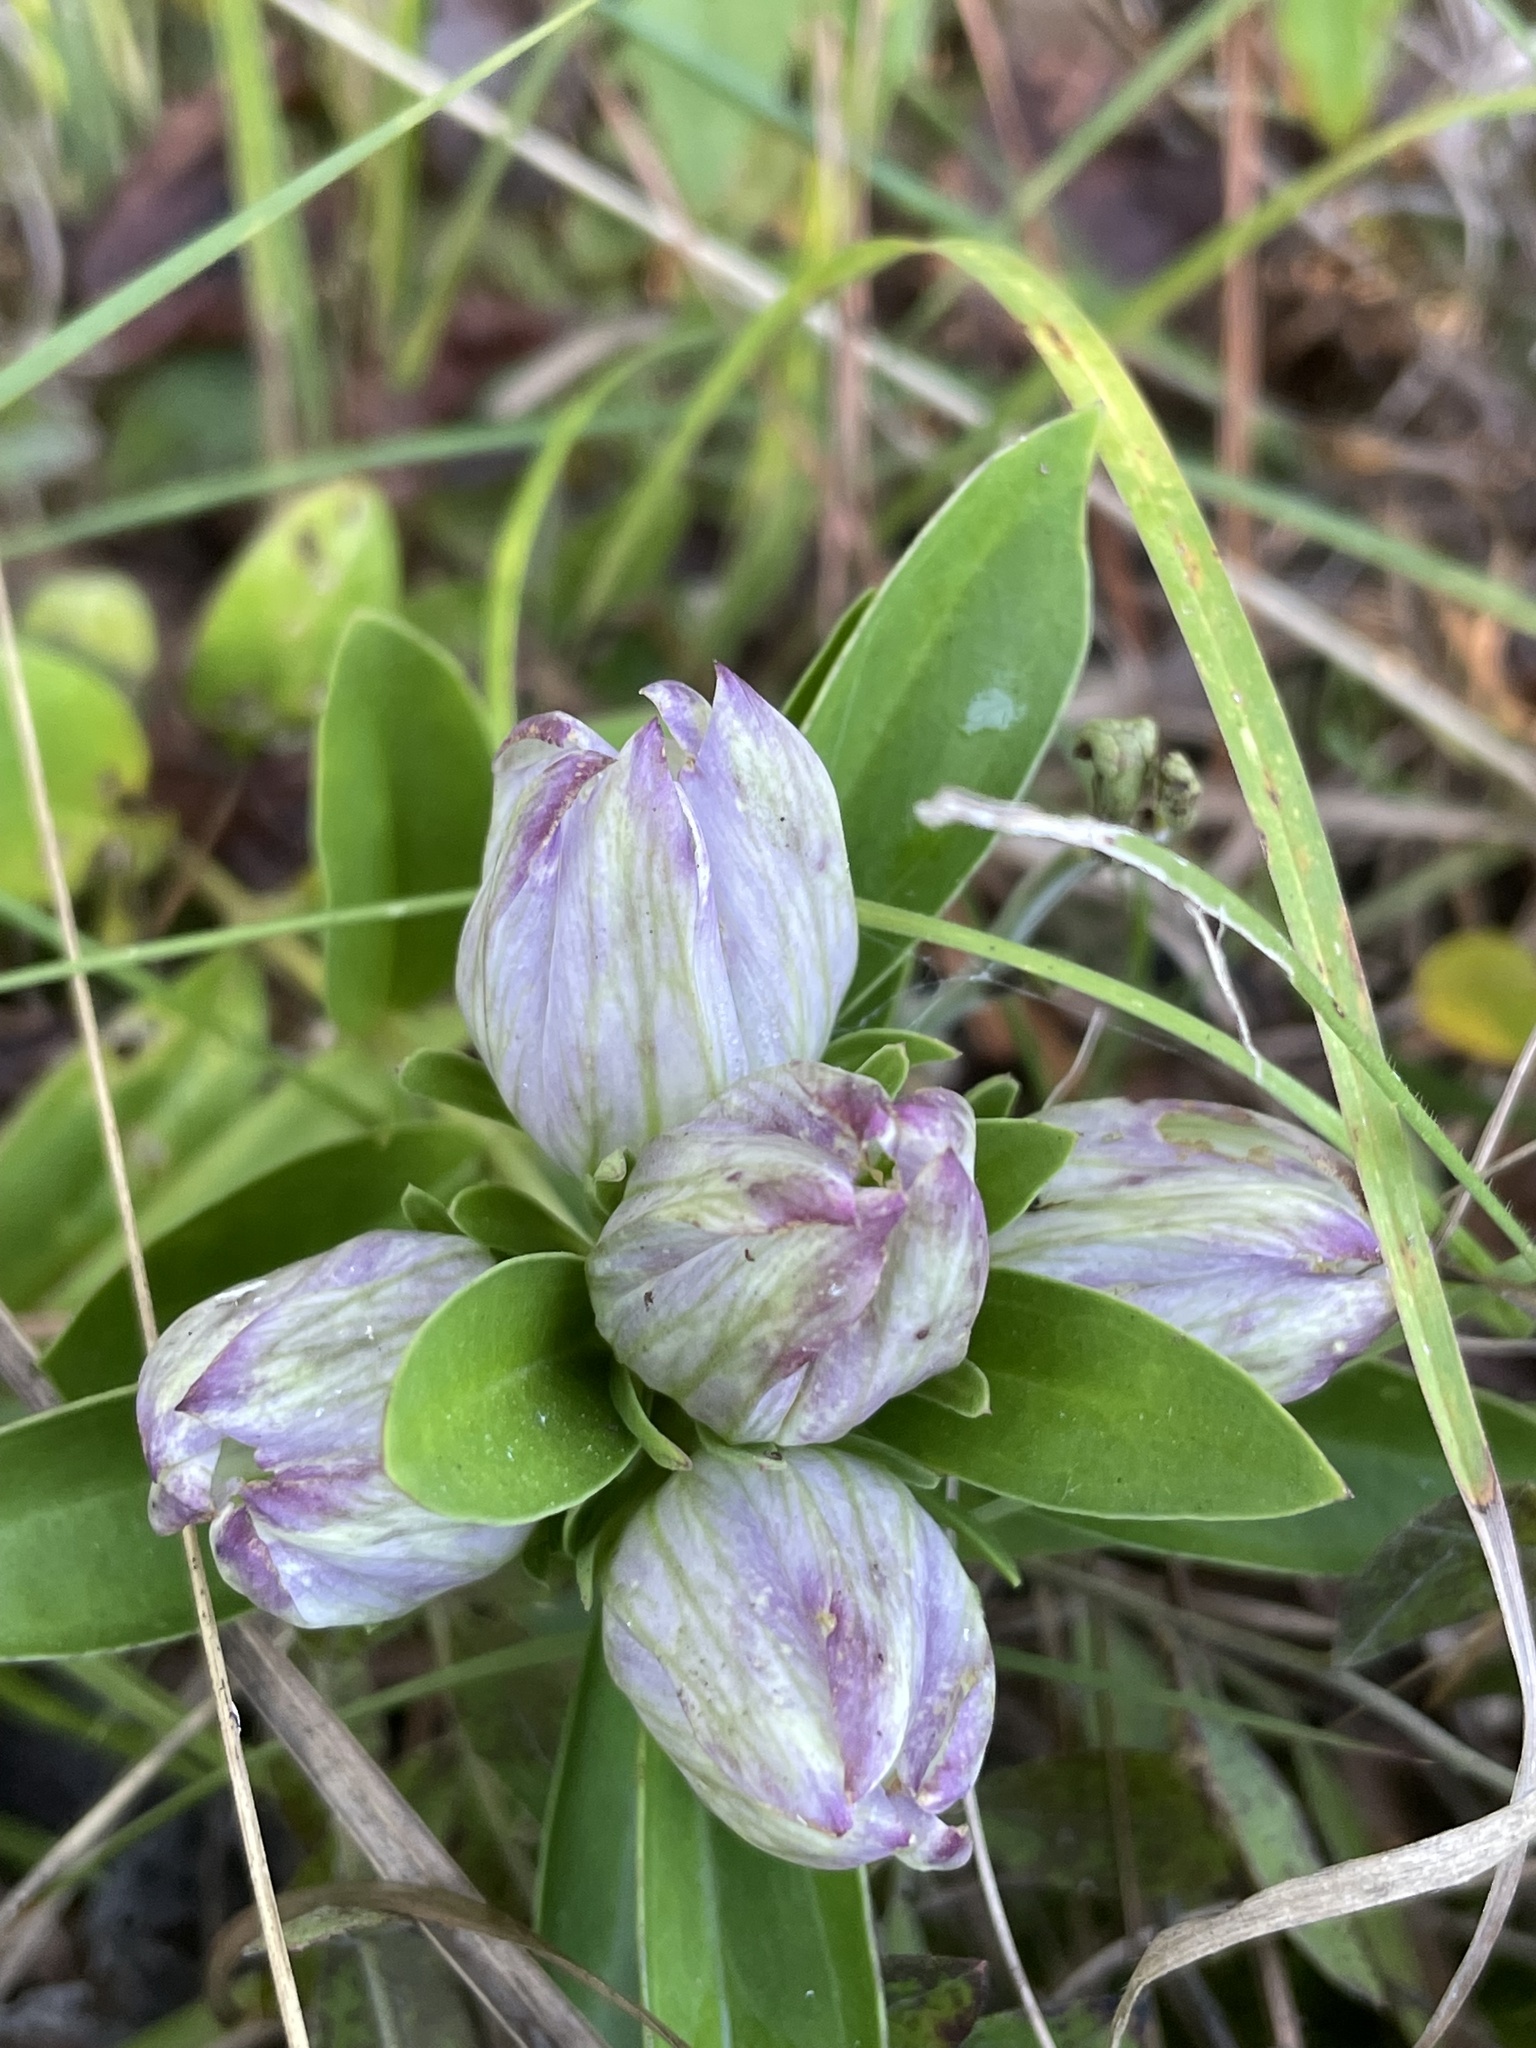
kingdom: Plantae
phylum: Tracheophyta
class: Magnoliopsida
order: Gentianales
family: Gentianaceae
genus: Gentiana
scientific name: Gentiana villosa
